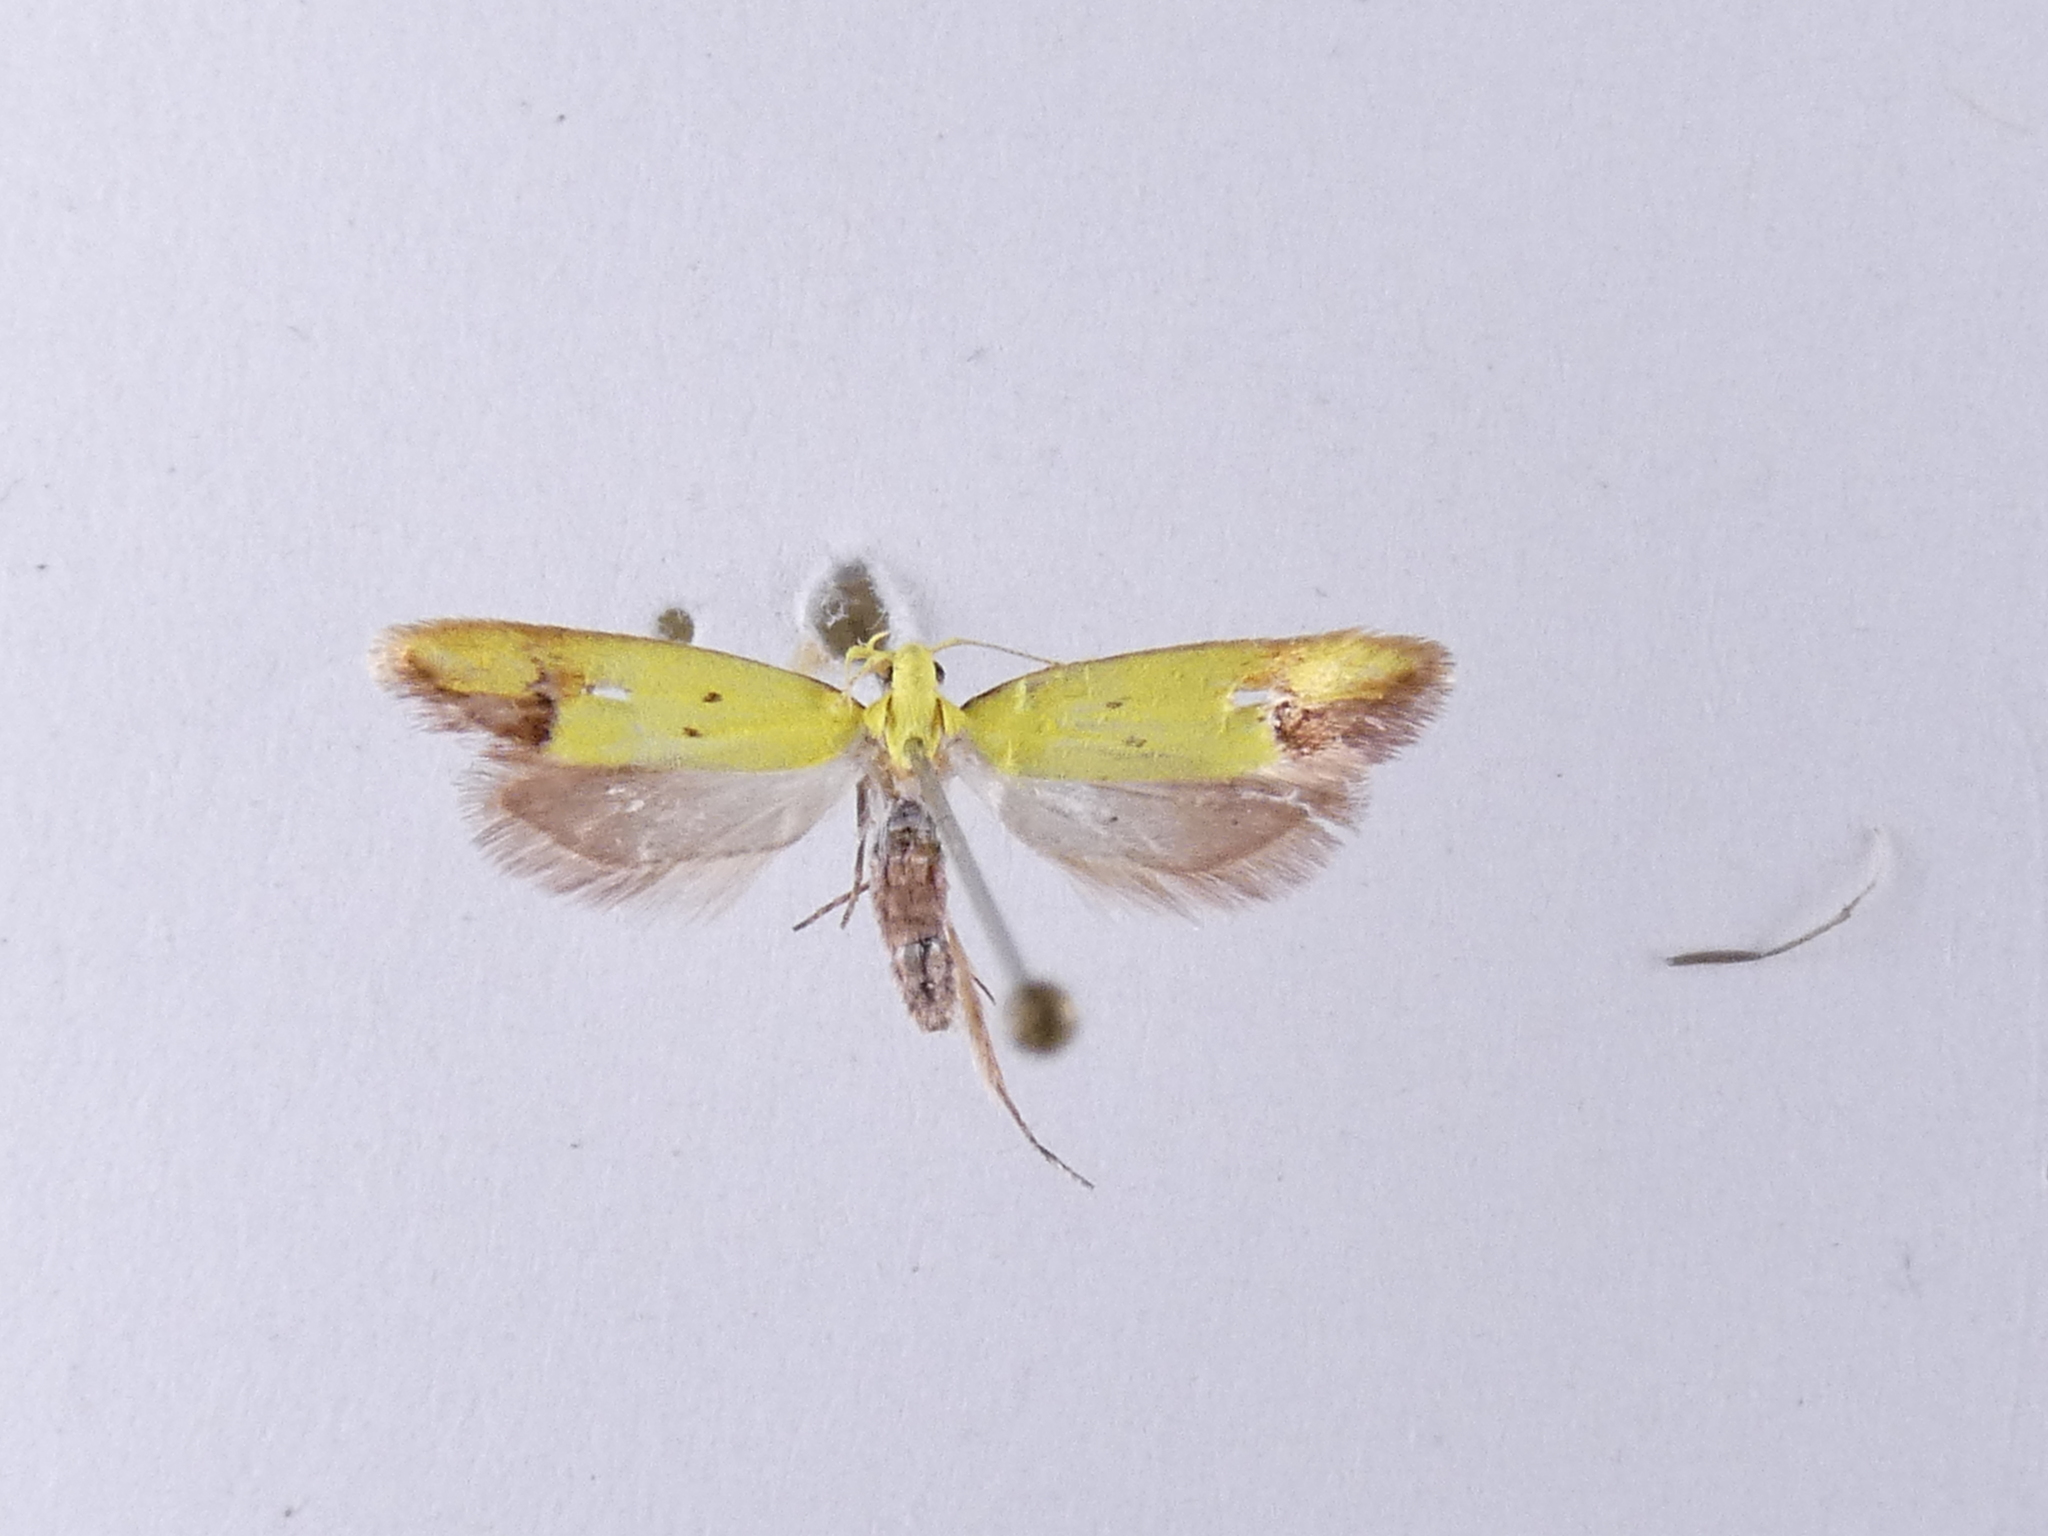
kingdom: Animalia
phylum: Arthropoda
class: Insecta
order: Lepidoptera
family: Oecophoridae
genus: Gymnobathra
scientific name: Gymnobathra flavidella
